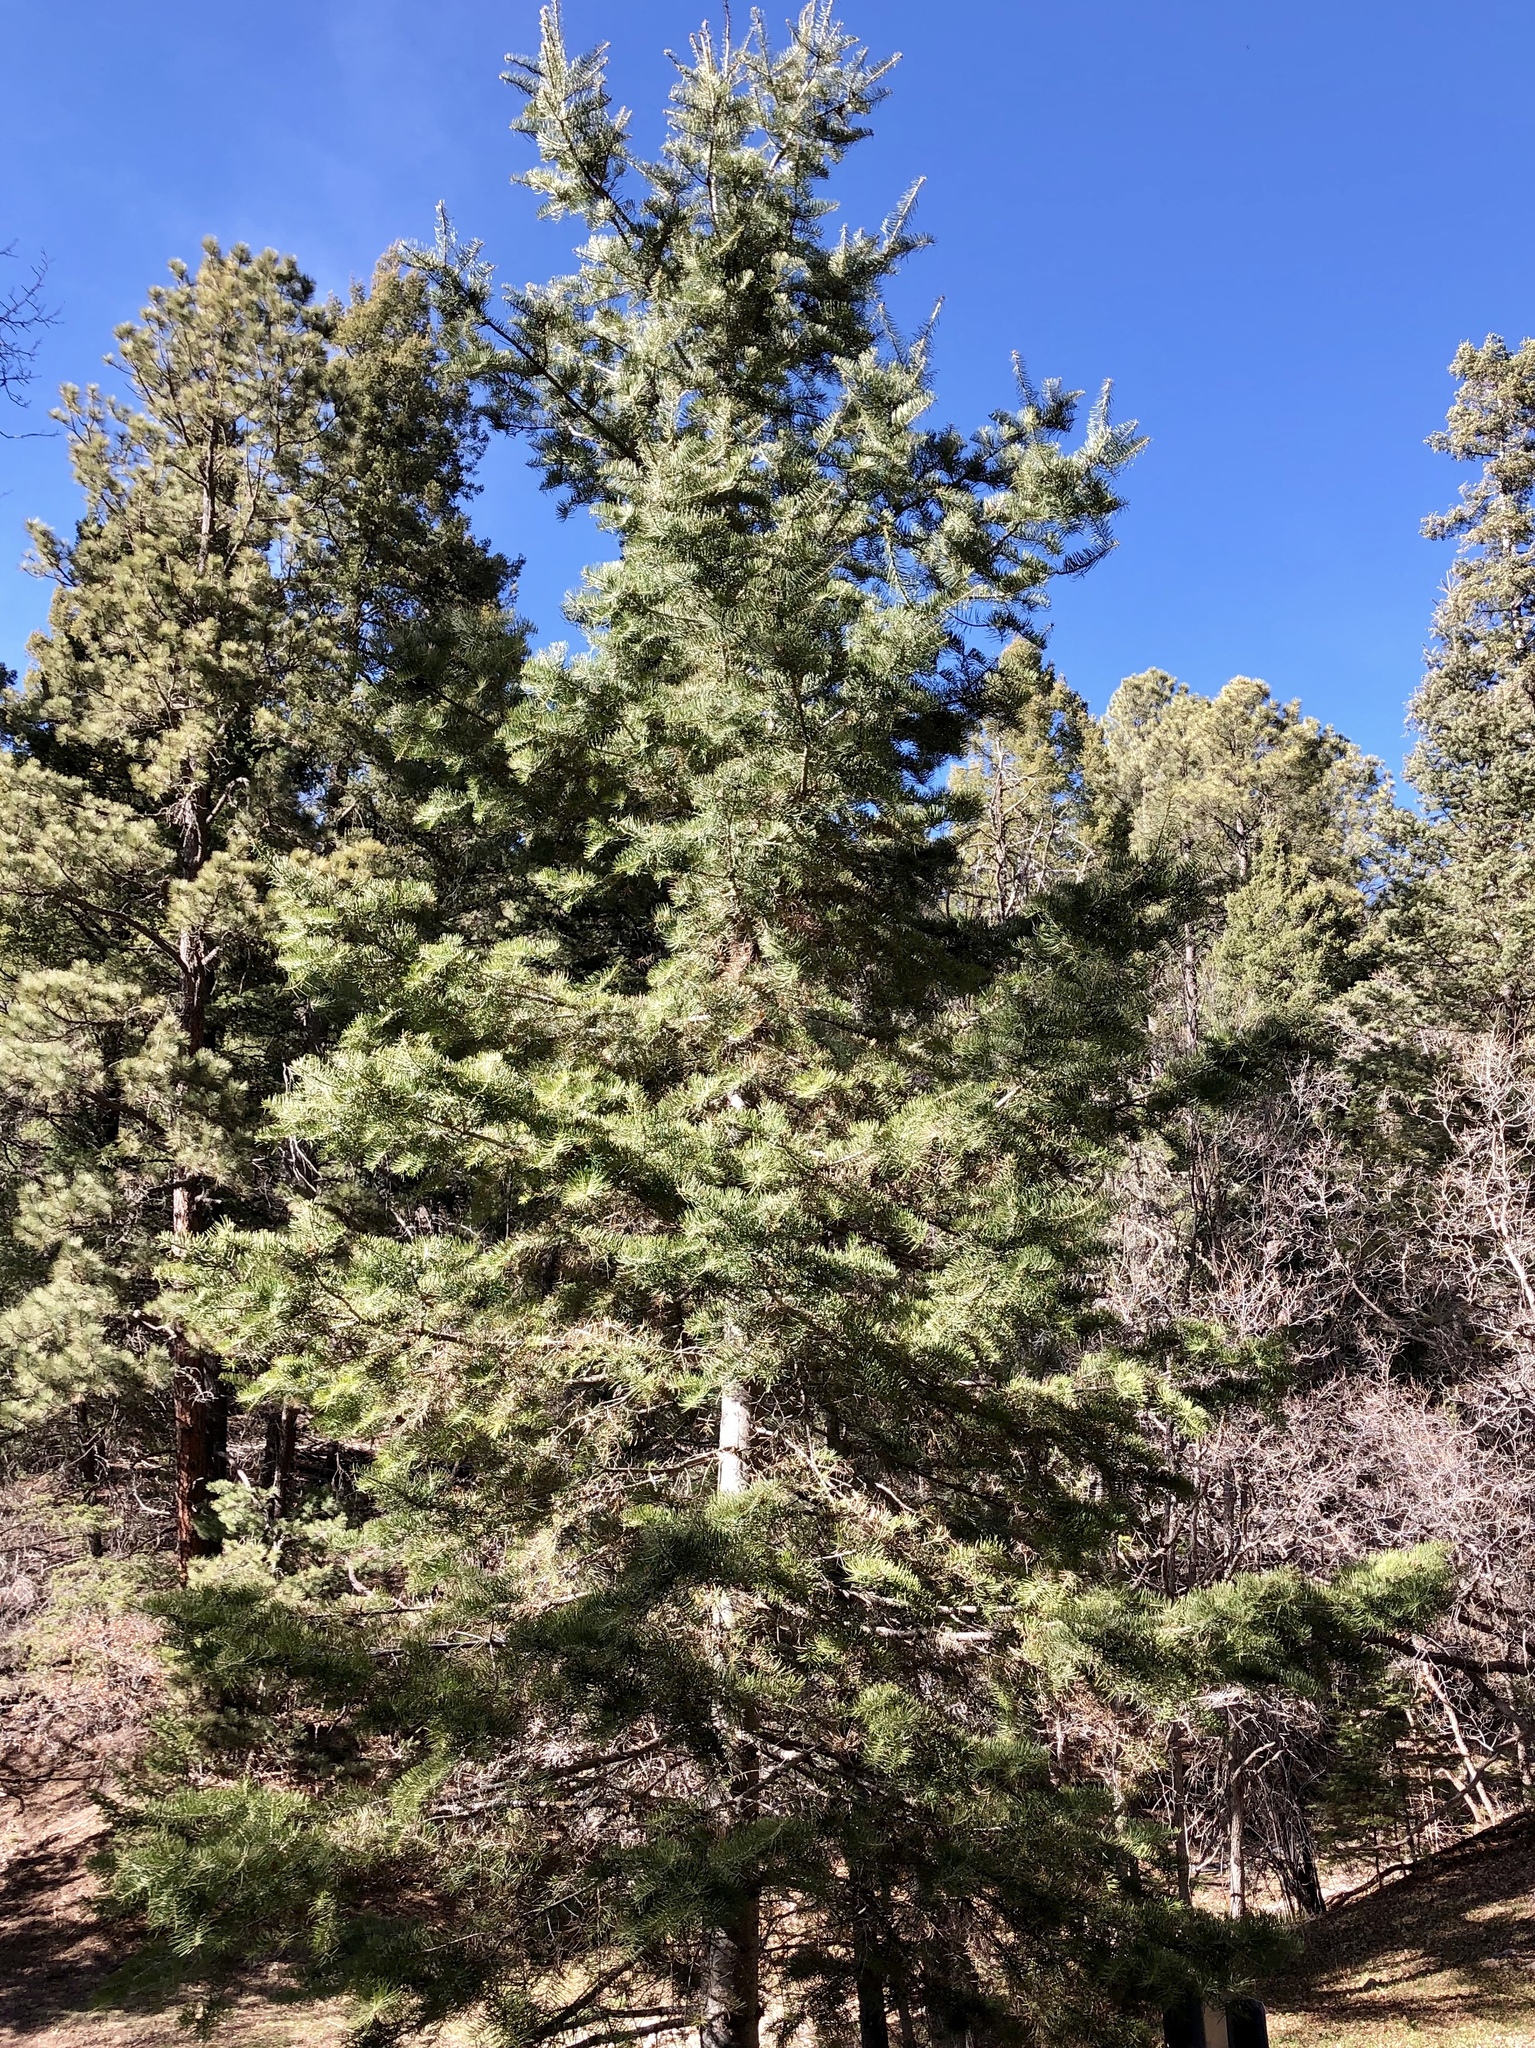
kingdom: Plantae
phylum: Tracheophyta
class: Pinopsida
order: Pinales
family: Pinaceae
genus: Abies
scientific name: Abies concolor
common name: Colorado fir
